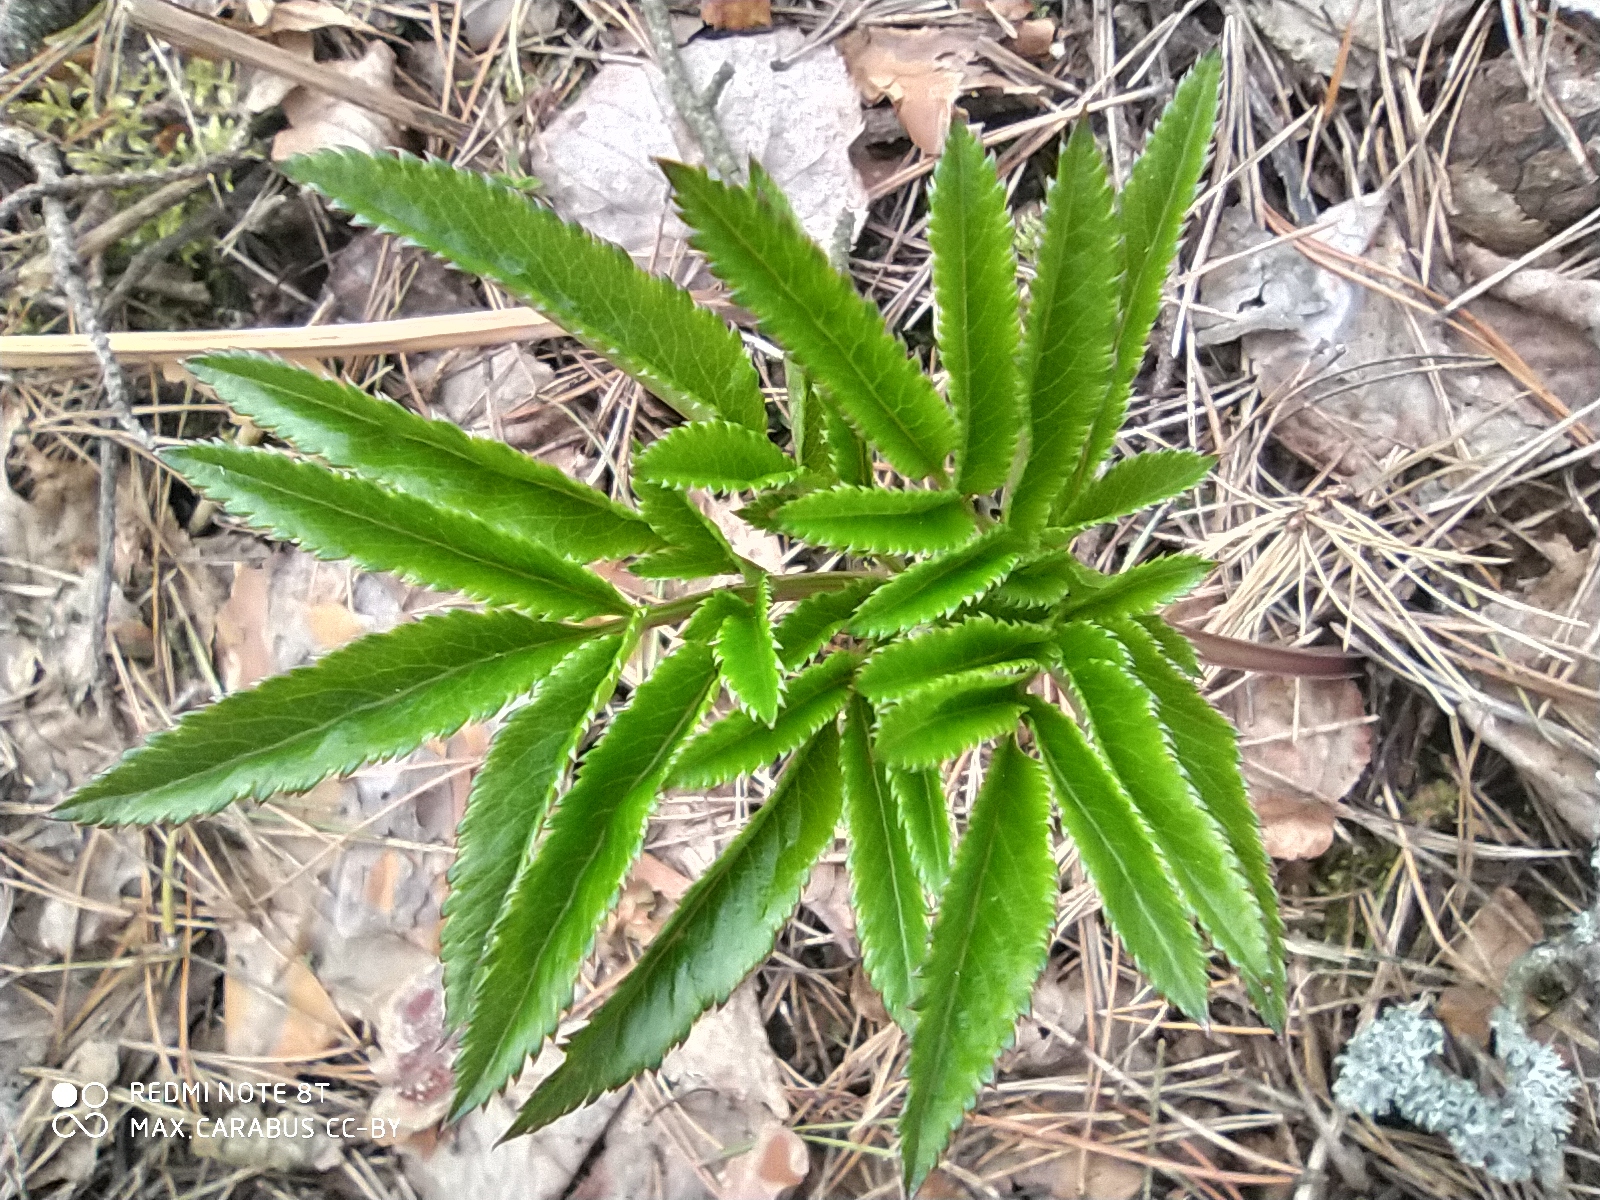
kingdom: Plantae
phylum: Tracheophyta
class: Magnoliopsida
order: Apiales
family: Apiaceae
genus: Angelica
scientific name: Angelica sylvestris
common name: Wild angelica
